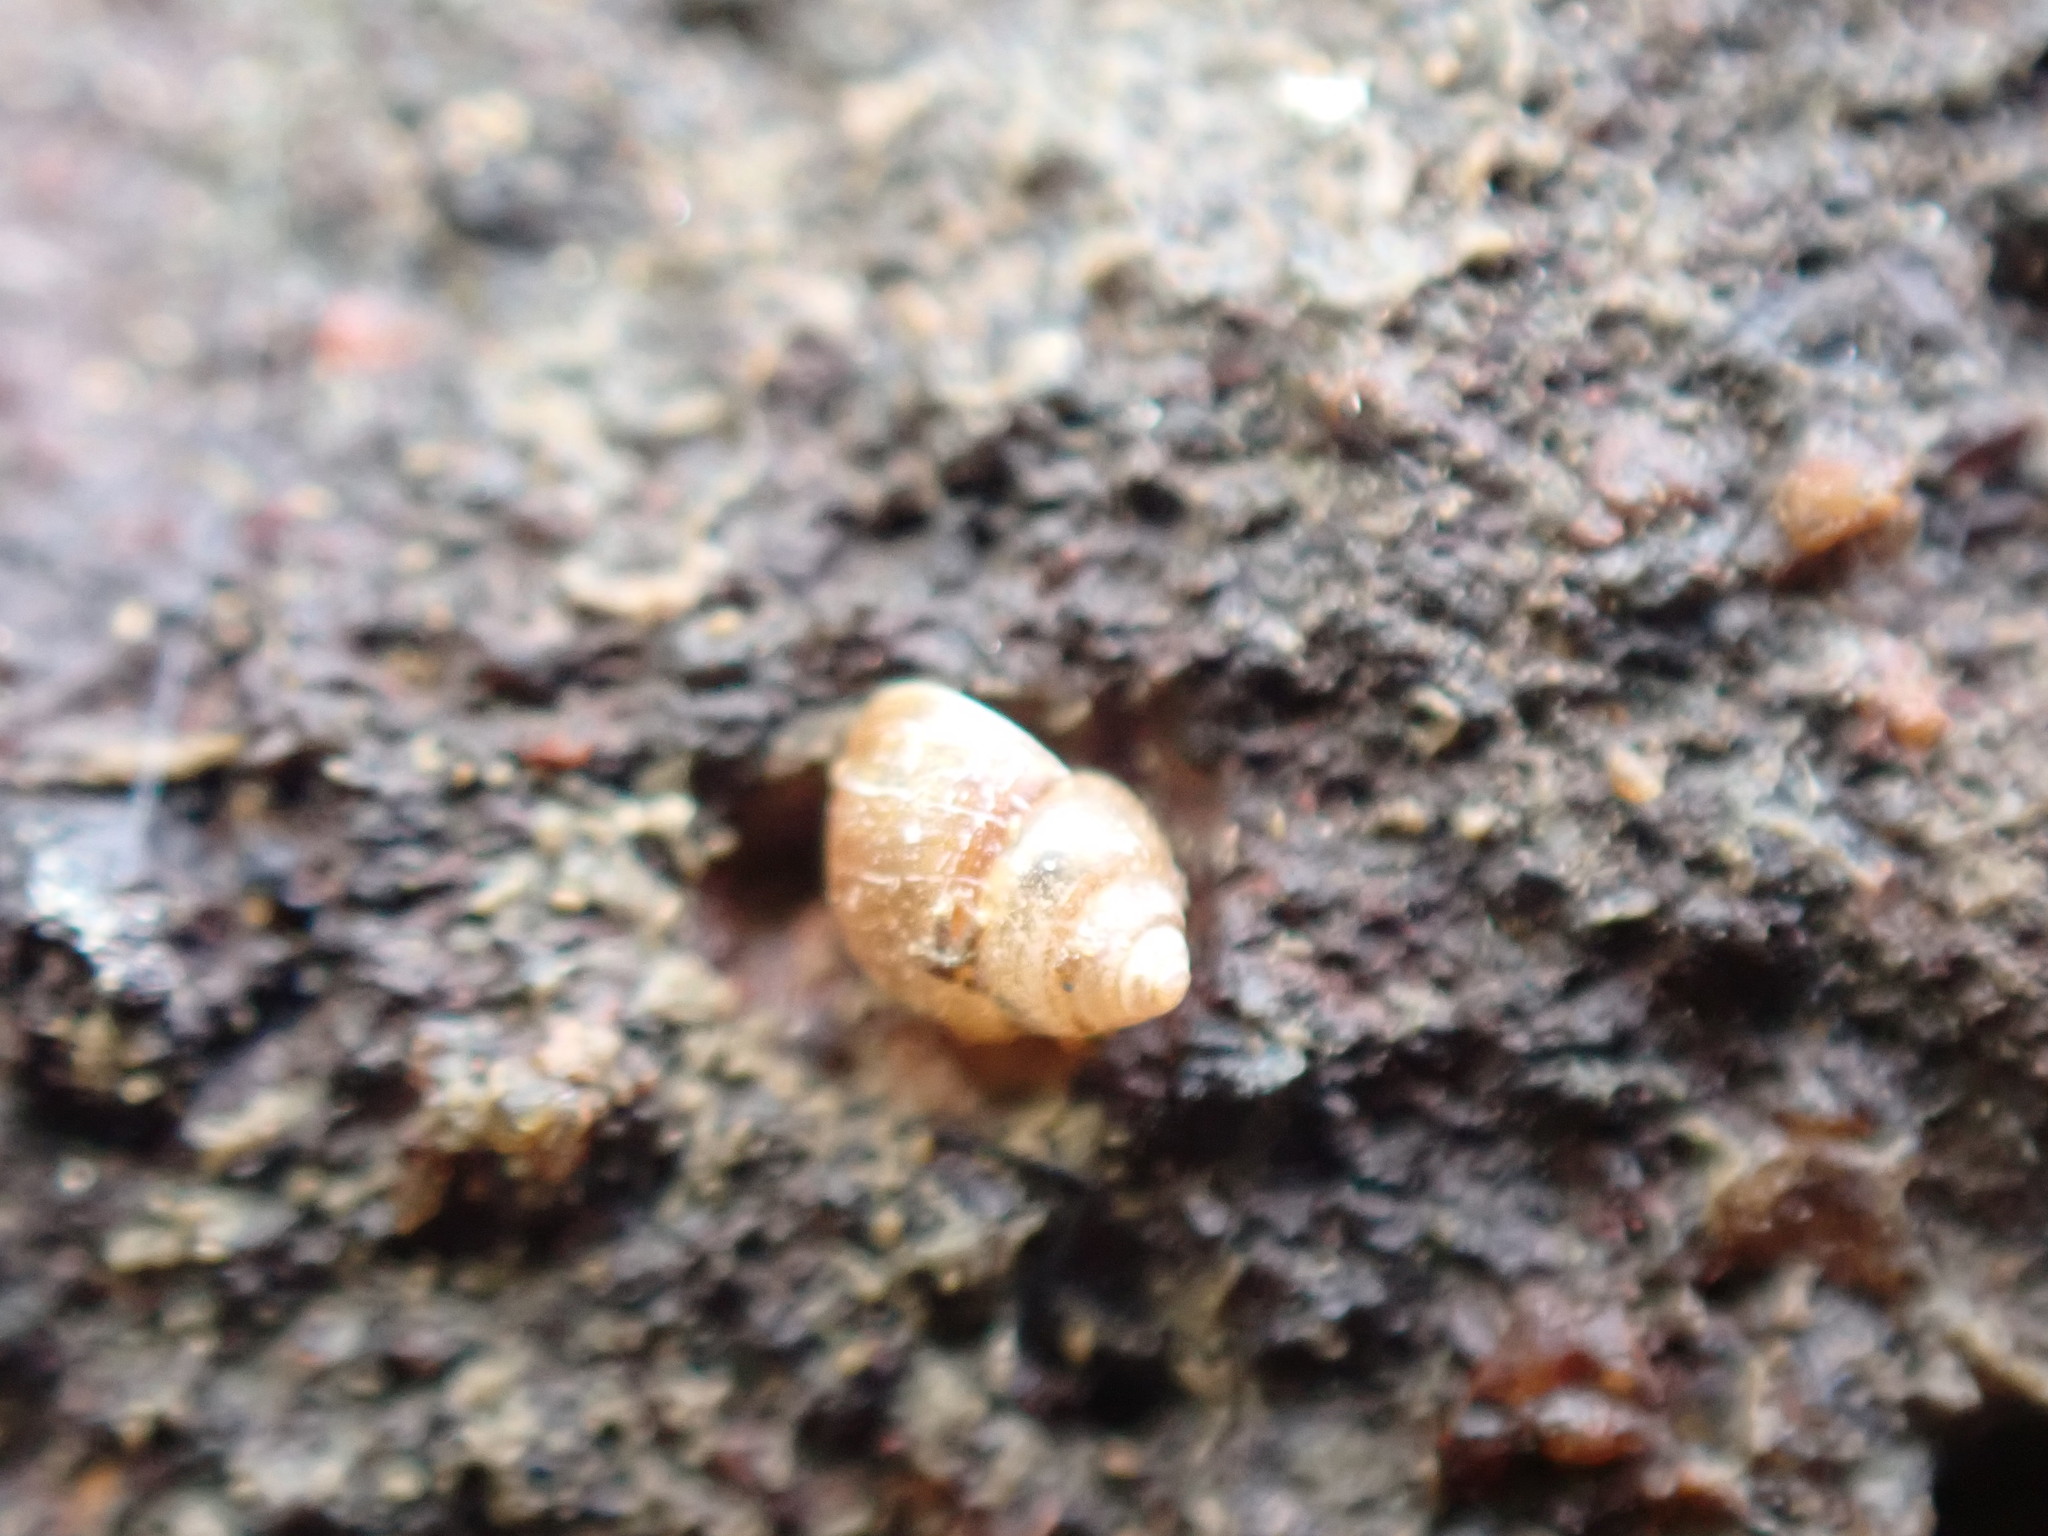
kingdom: Animalia
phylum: Mollusca
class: Gastropoda
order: Littorinimorpha
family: Assimineidae
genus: Suterilla
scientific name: Suterilla neozelanica
